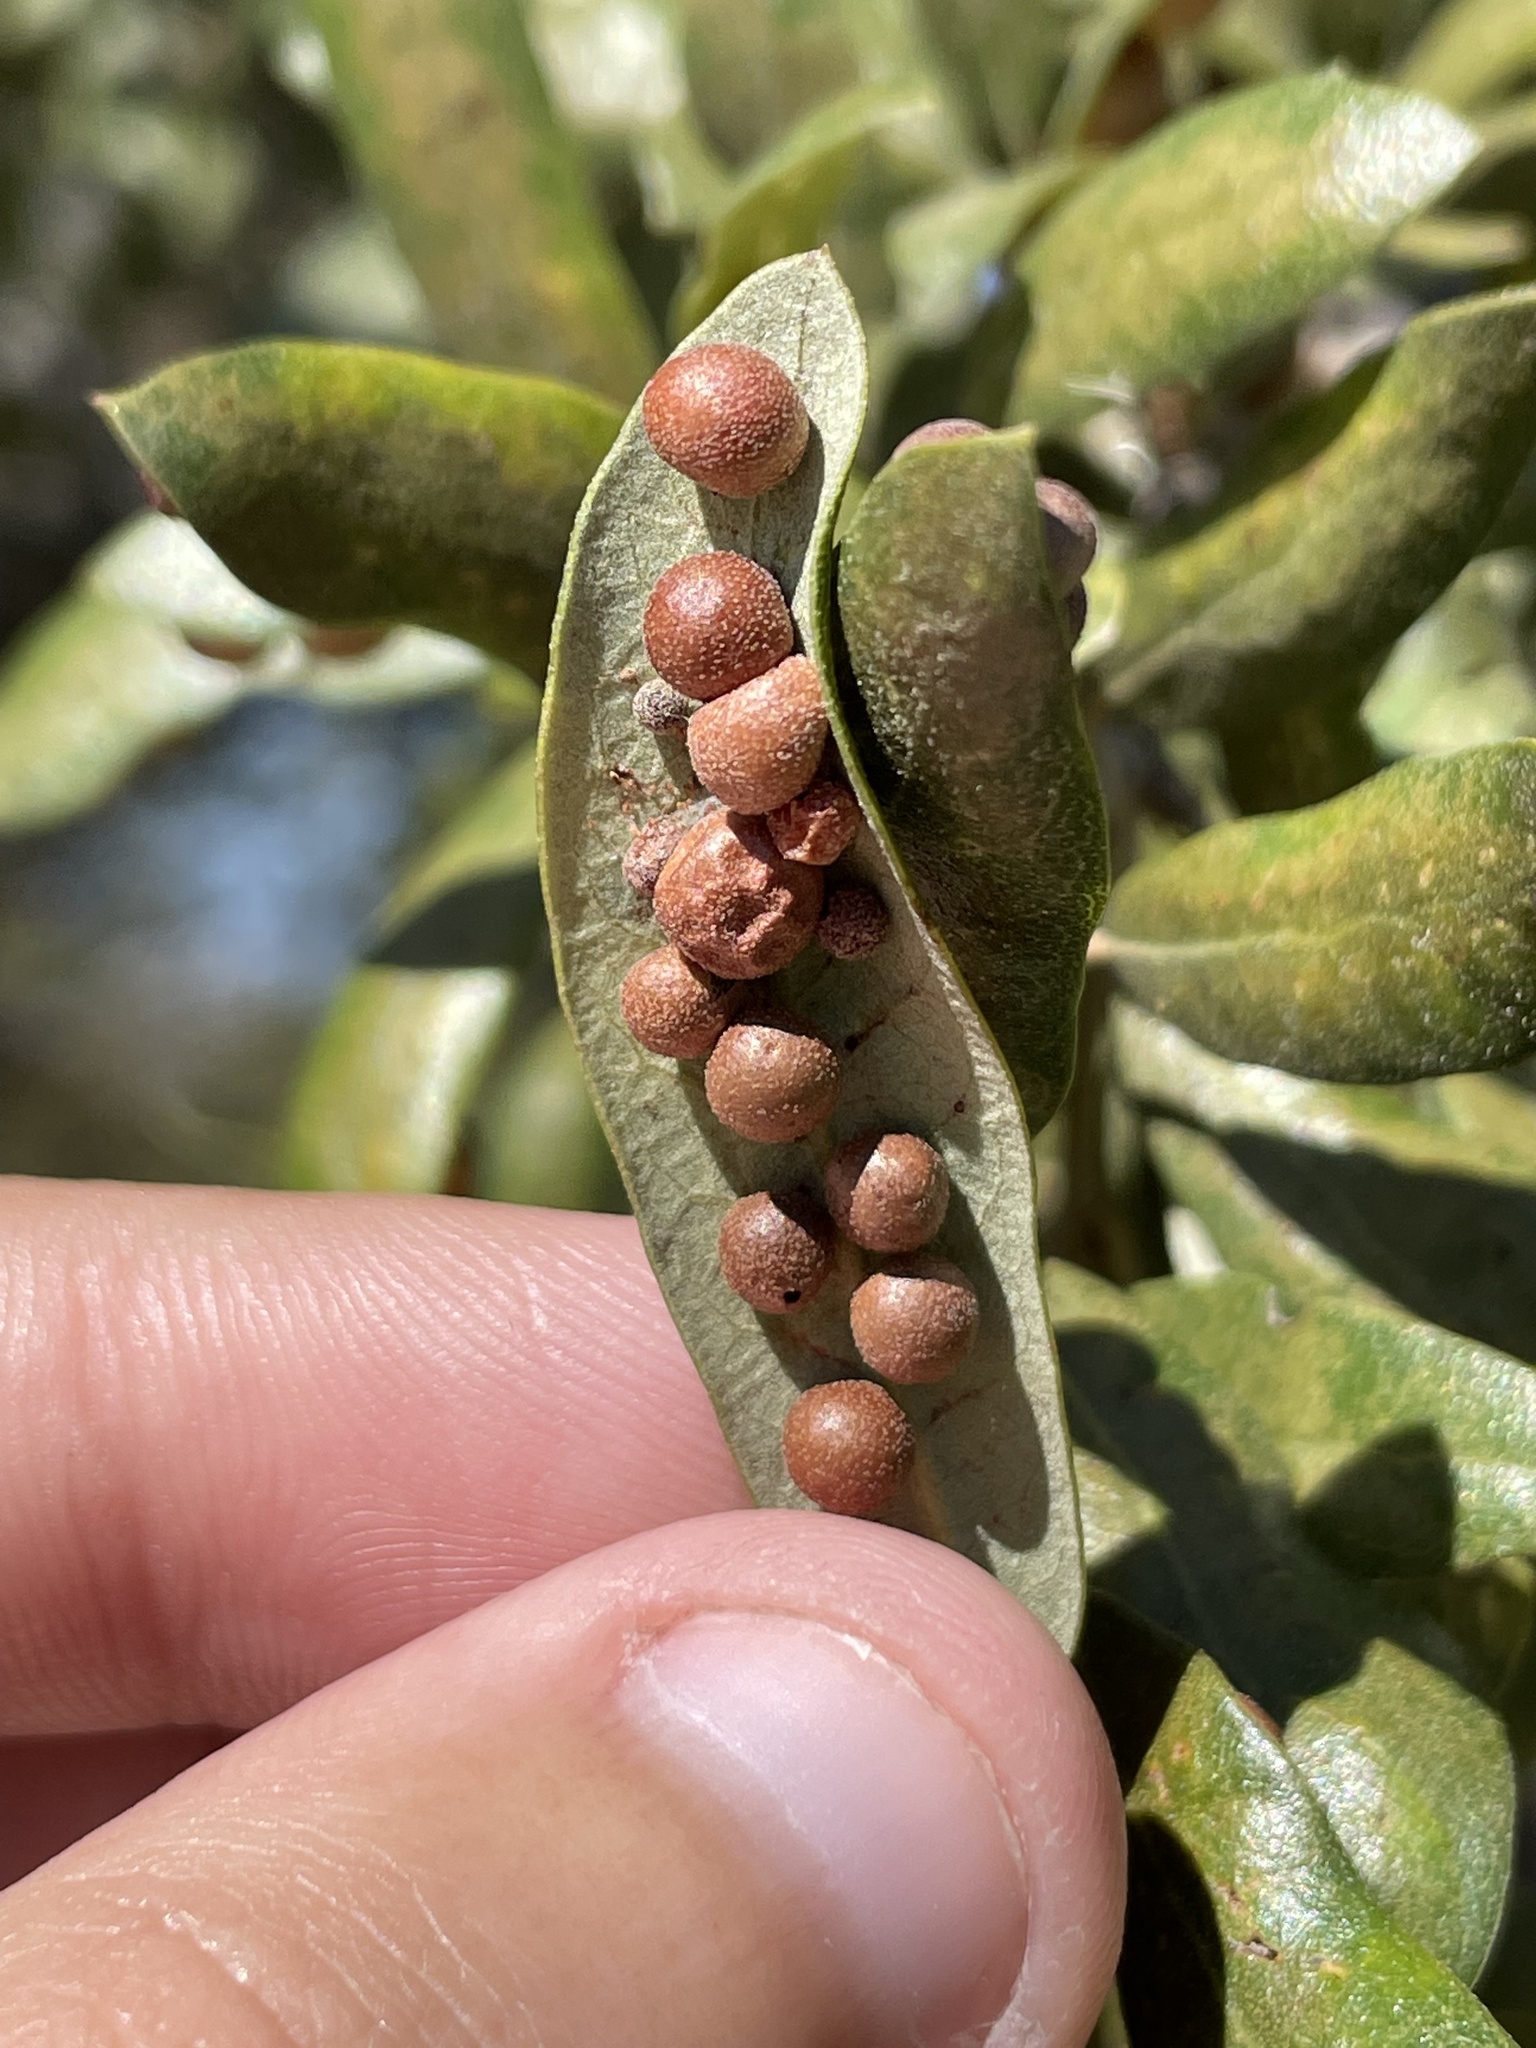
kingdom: Animalia
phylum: Arthropoda
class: Insecta
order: Hymenoptera
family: Cynipidae
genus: Belonocnema
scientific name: Belonocnema kinseyi
